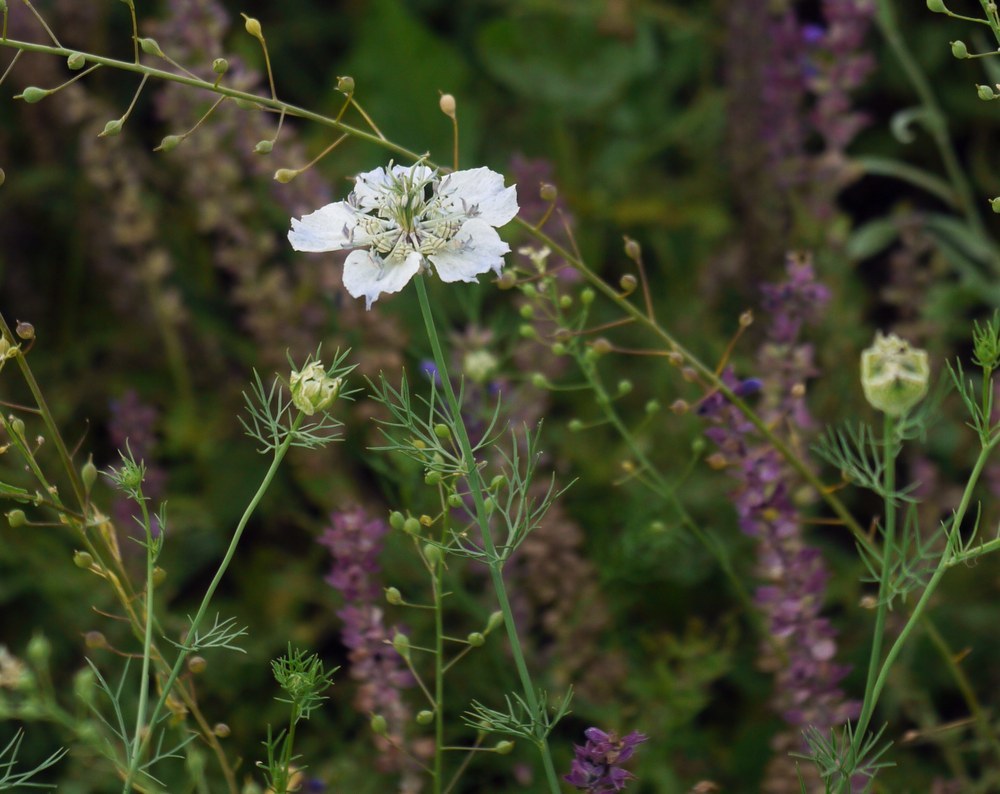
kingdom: Plantae
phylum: Tracheophyta
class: Magnoliopsida
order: Ranunculales
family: Ranunculaceae
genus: Nigella
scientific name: Nigella arvensis
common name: Wild fennel-flower
